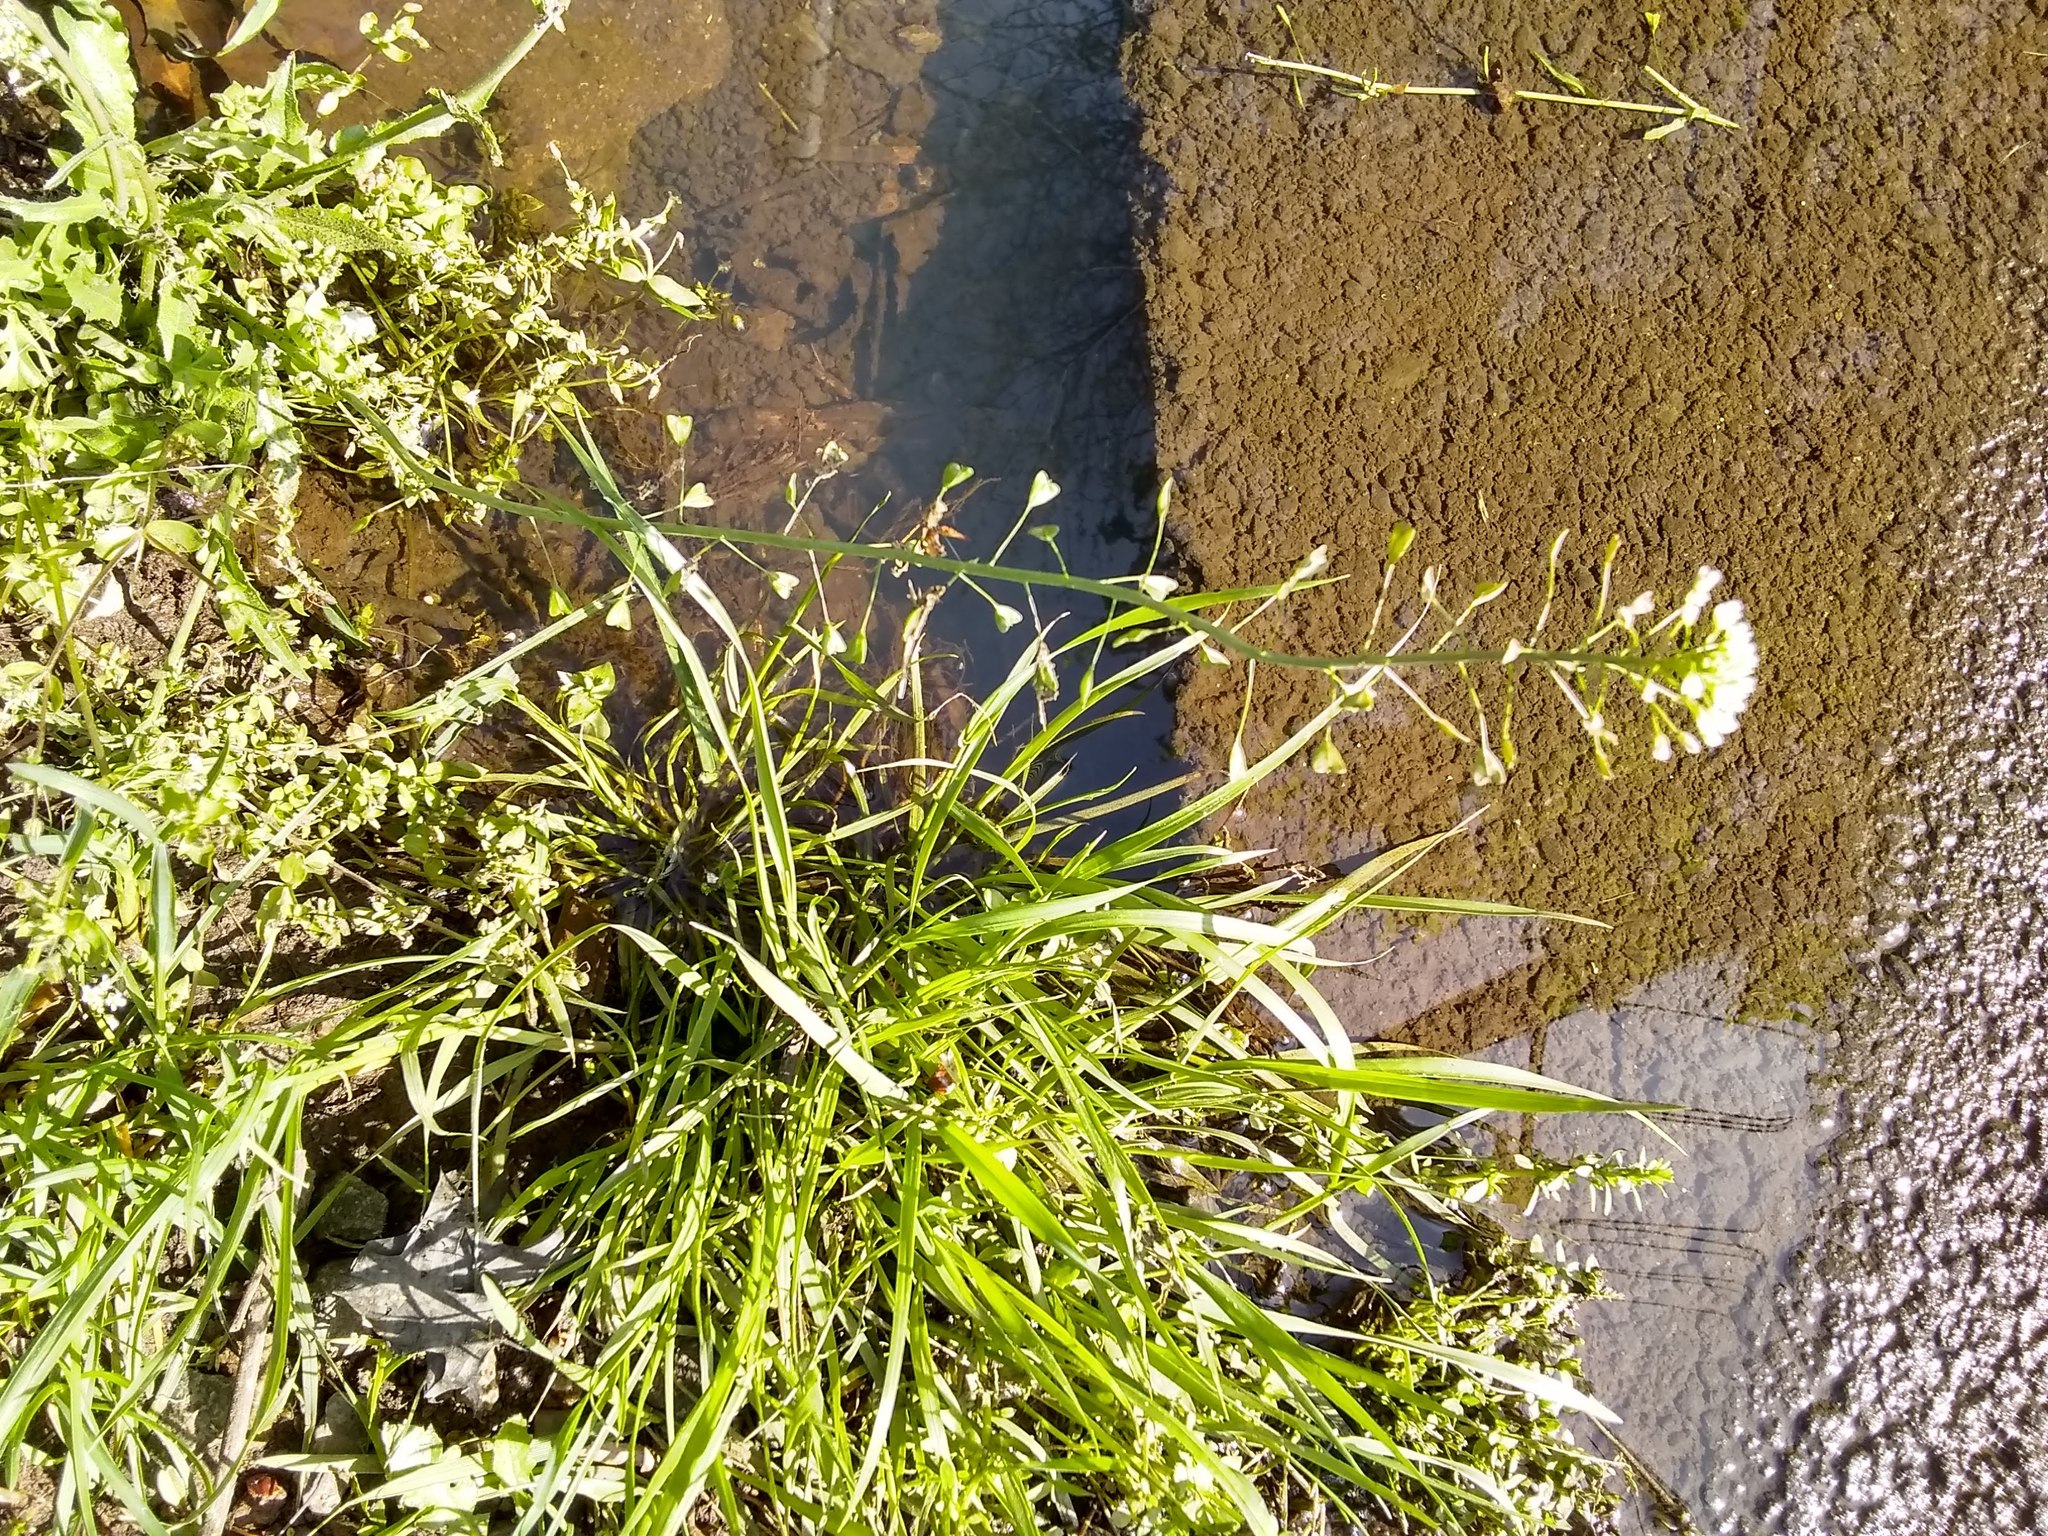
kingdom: Plantae
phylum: Tracheophyta
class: Magnoliopsida
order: Brassicales
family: Brassicaceae
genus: Capsella
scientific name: Capsella bursa-pastoris
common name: Shepherd's purse
